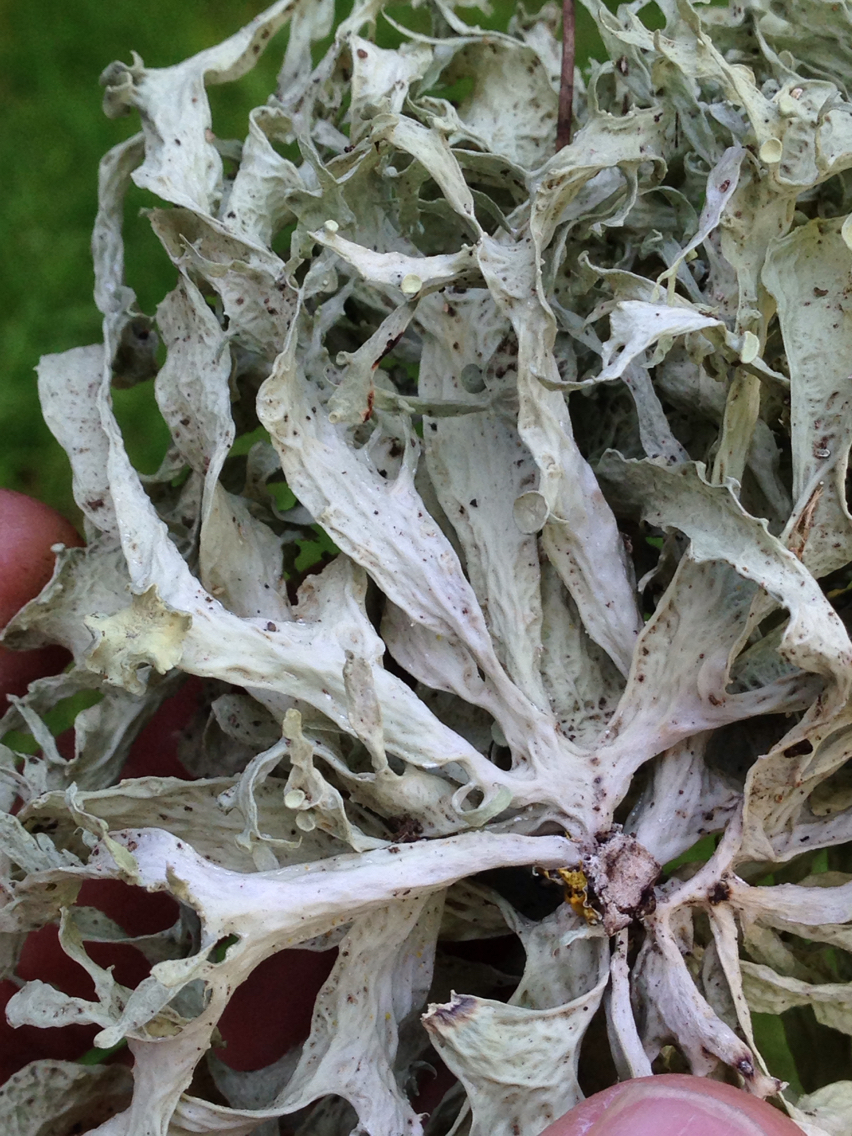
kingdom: Fungi
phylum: Ascomycota
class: Lecanoromycetes
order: Lecanorales
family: Ramalinaceae
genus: Ramalina
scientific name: Ramalina celastri
